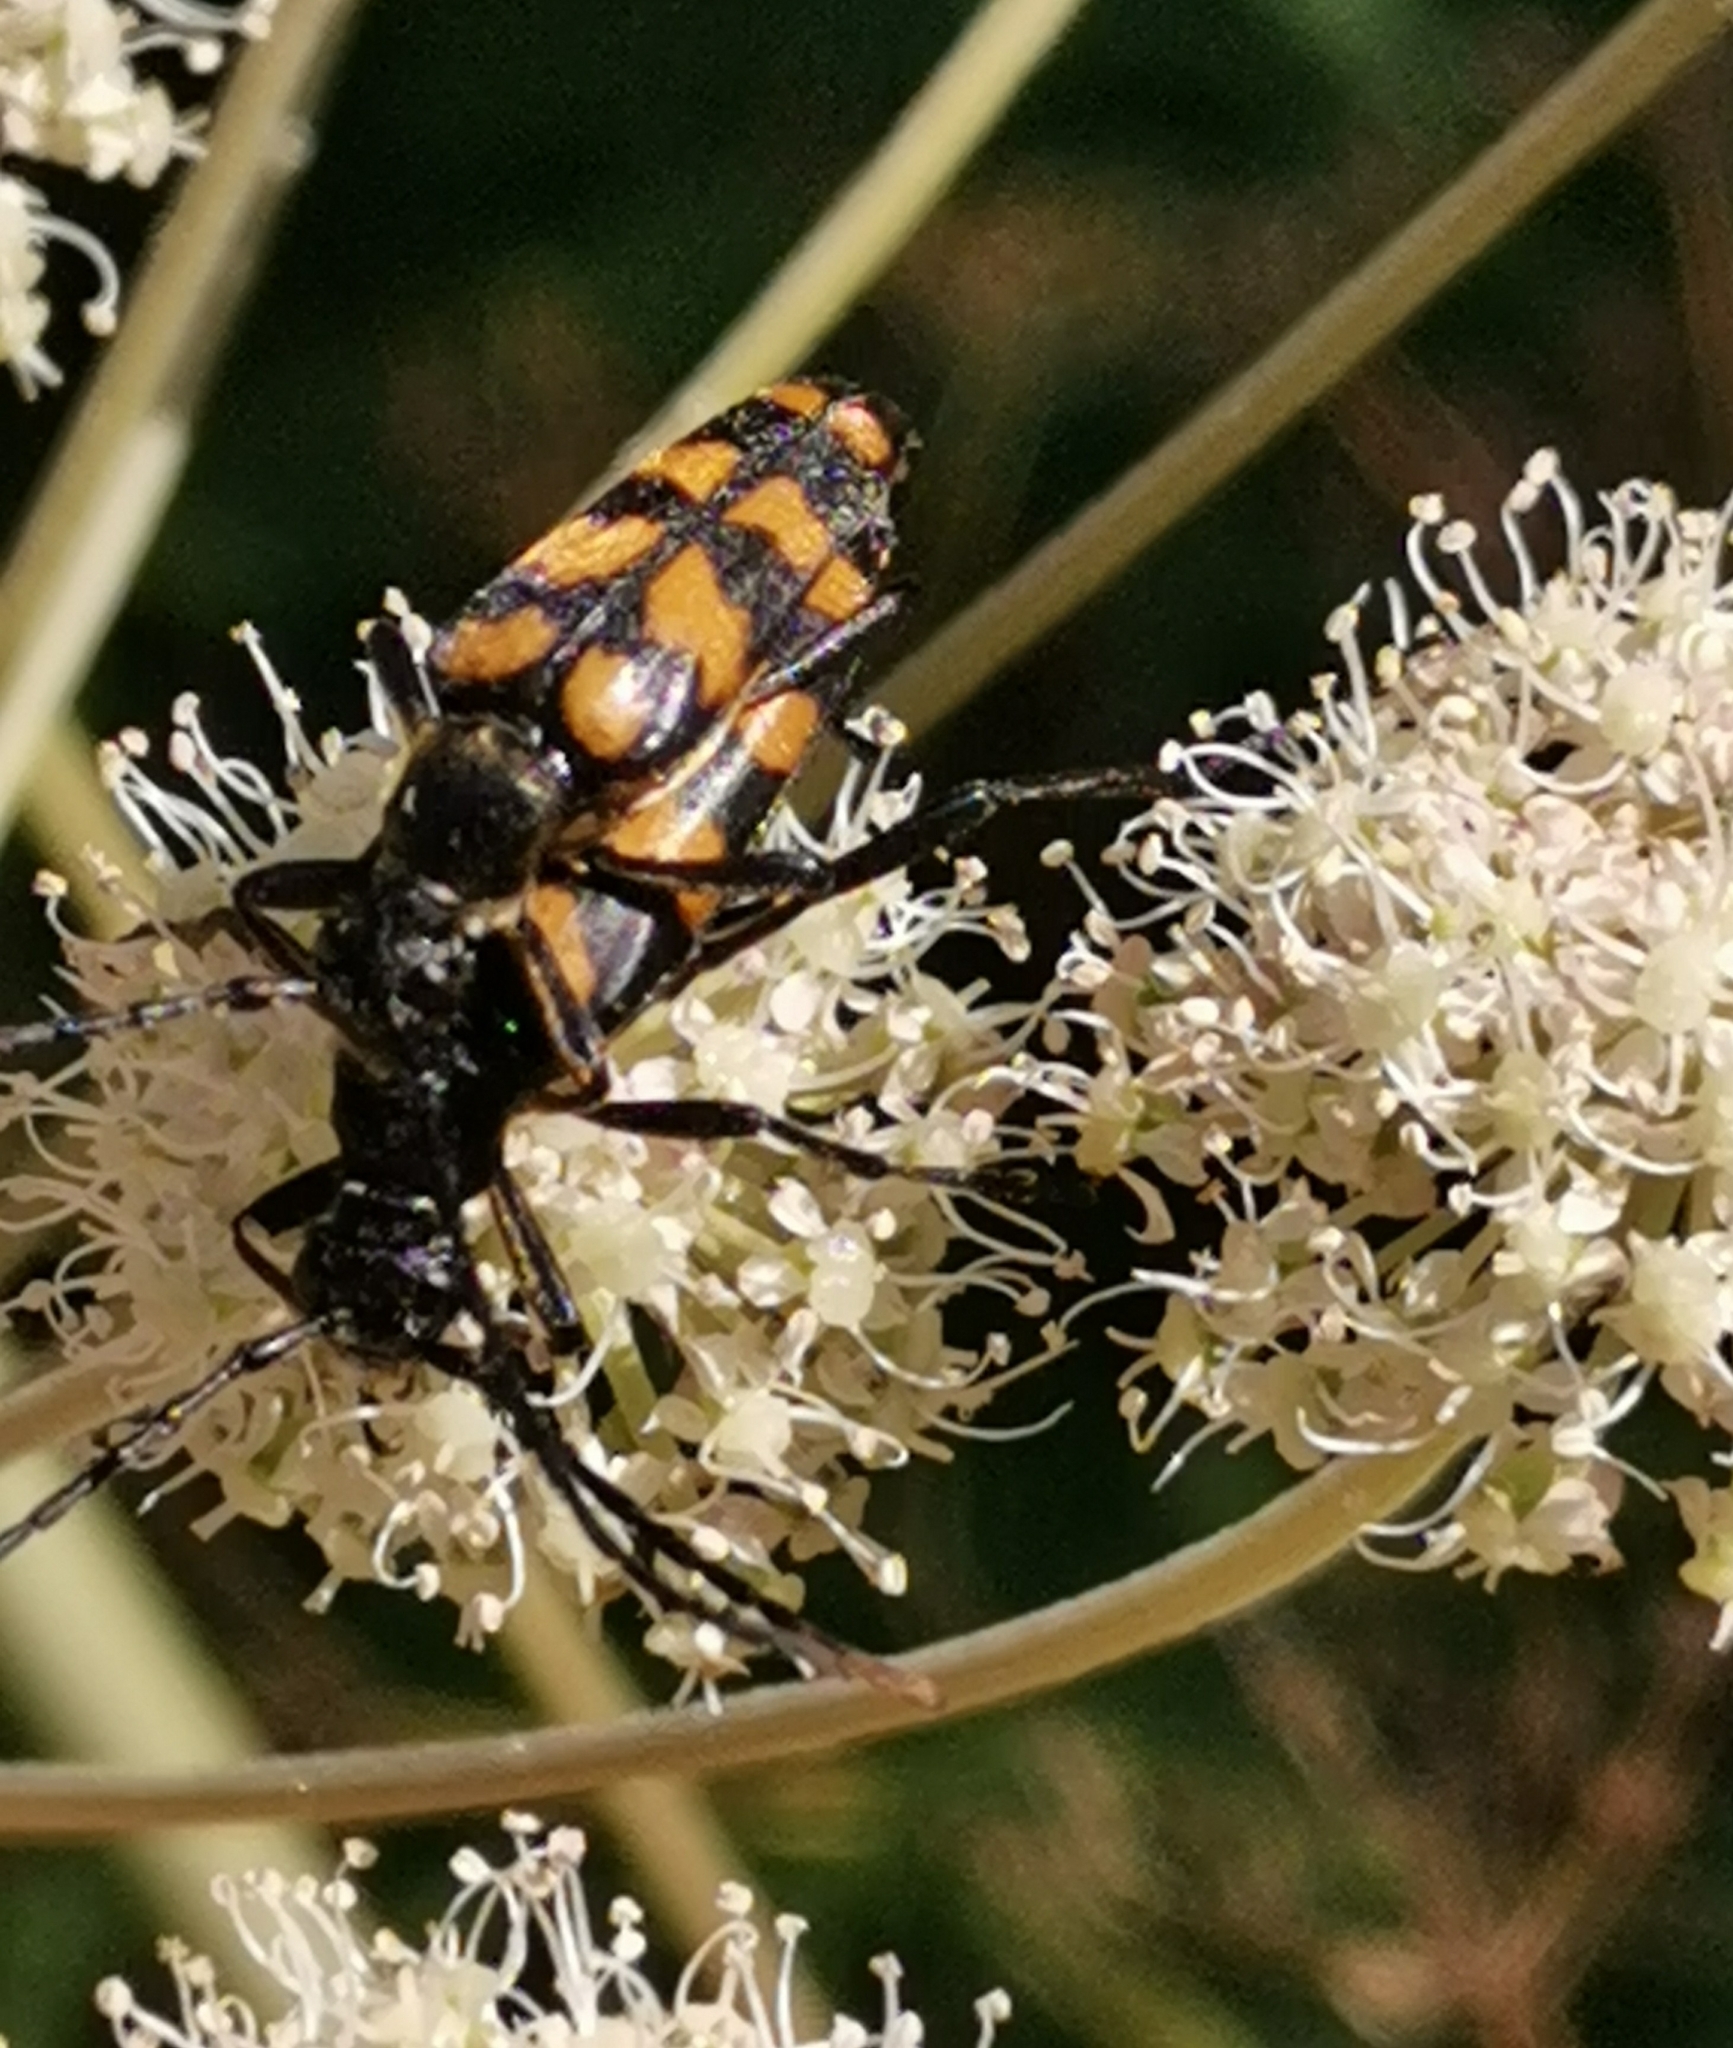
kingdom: Animalia
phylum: Arthropoda
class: Insecta
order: Coleoptera
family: Cerambycidae
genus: Leptura
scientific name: Leptura quadrifasciata
